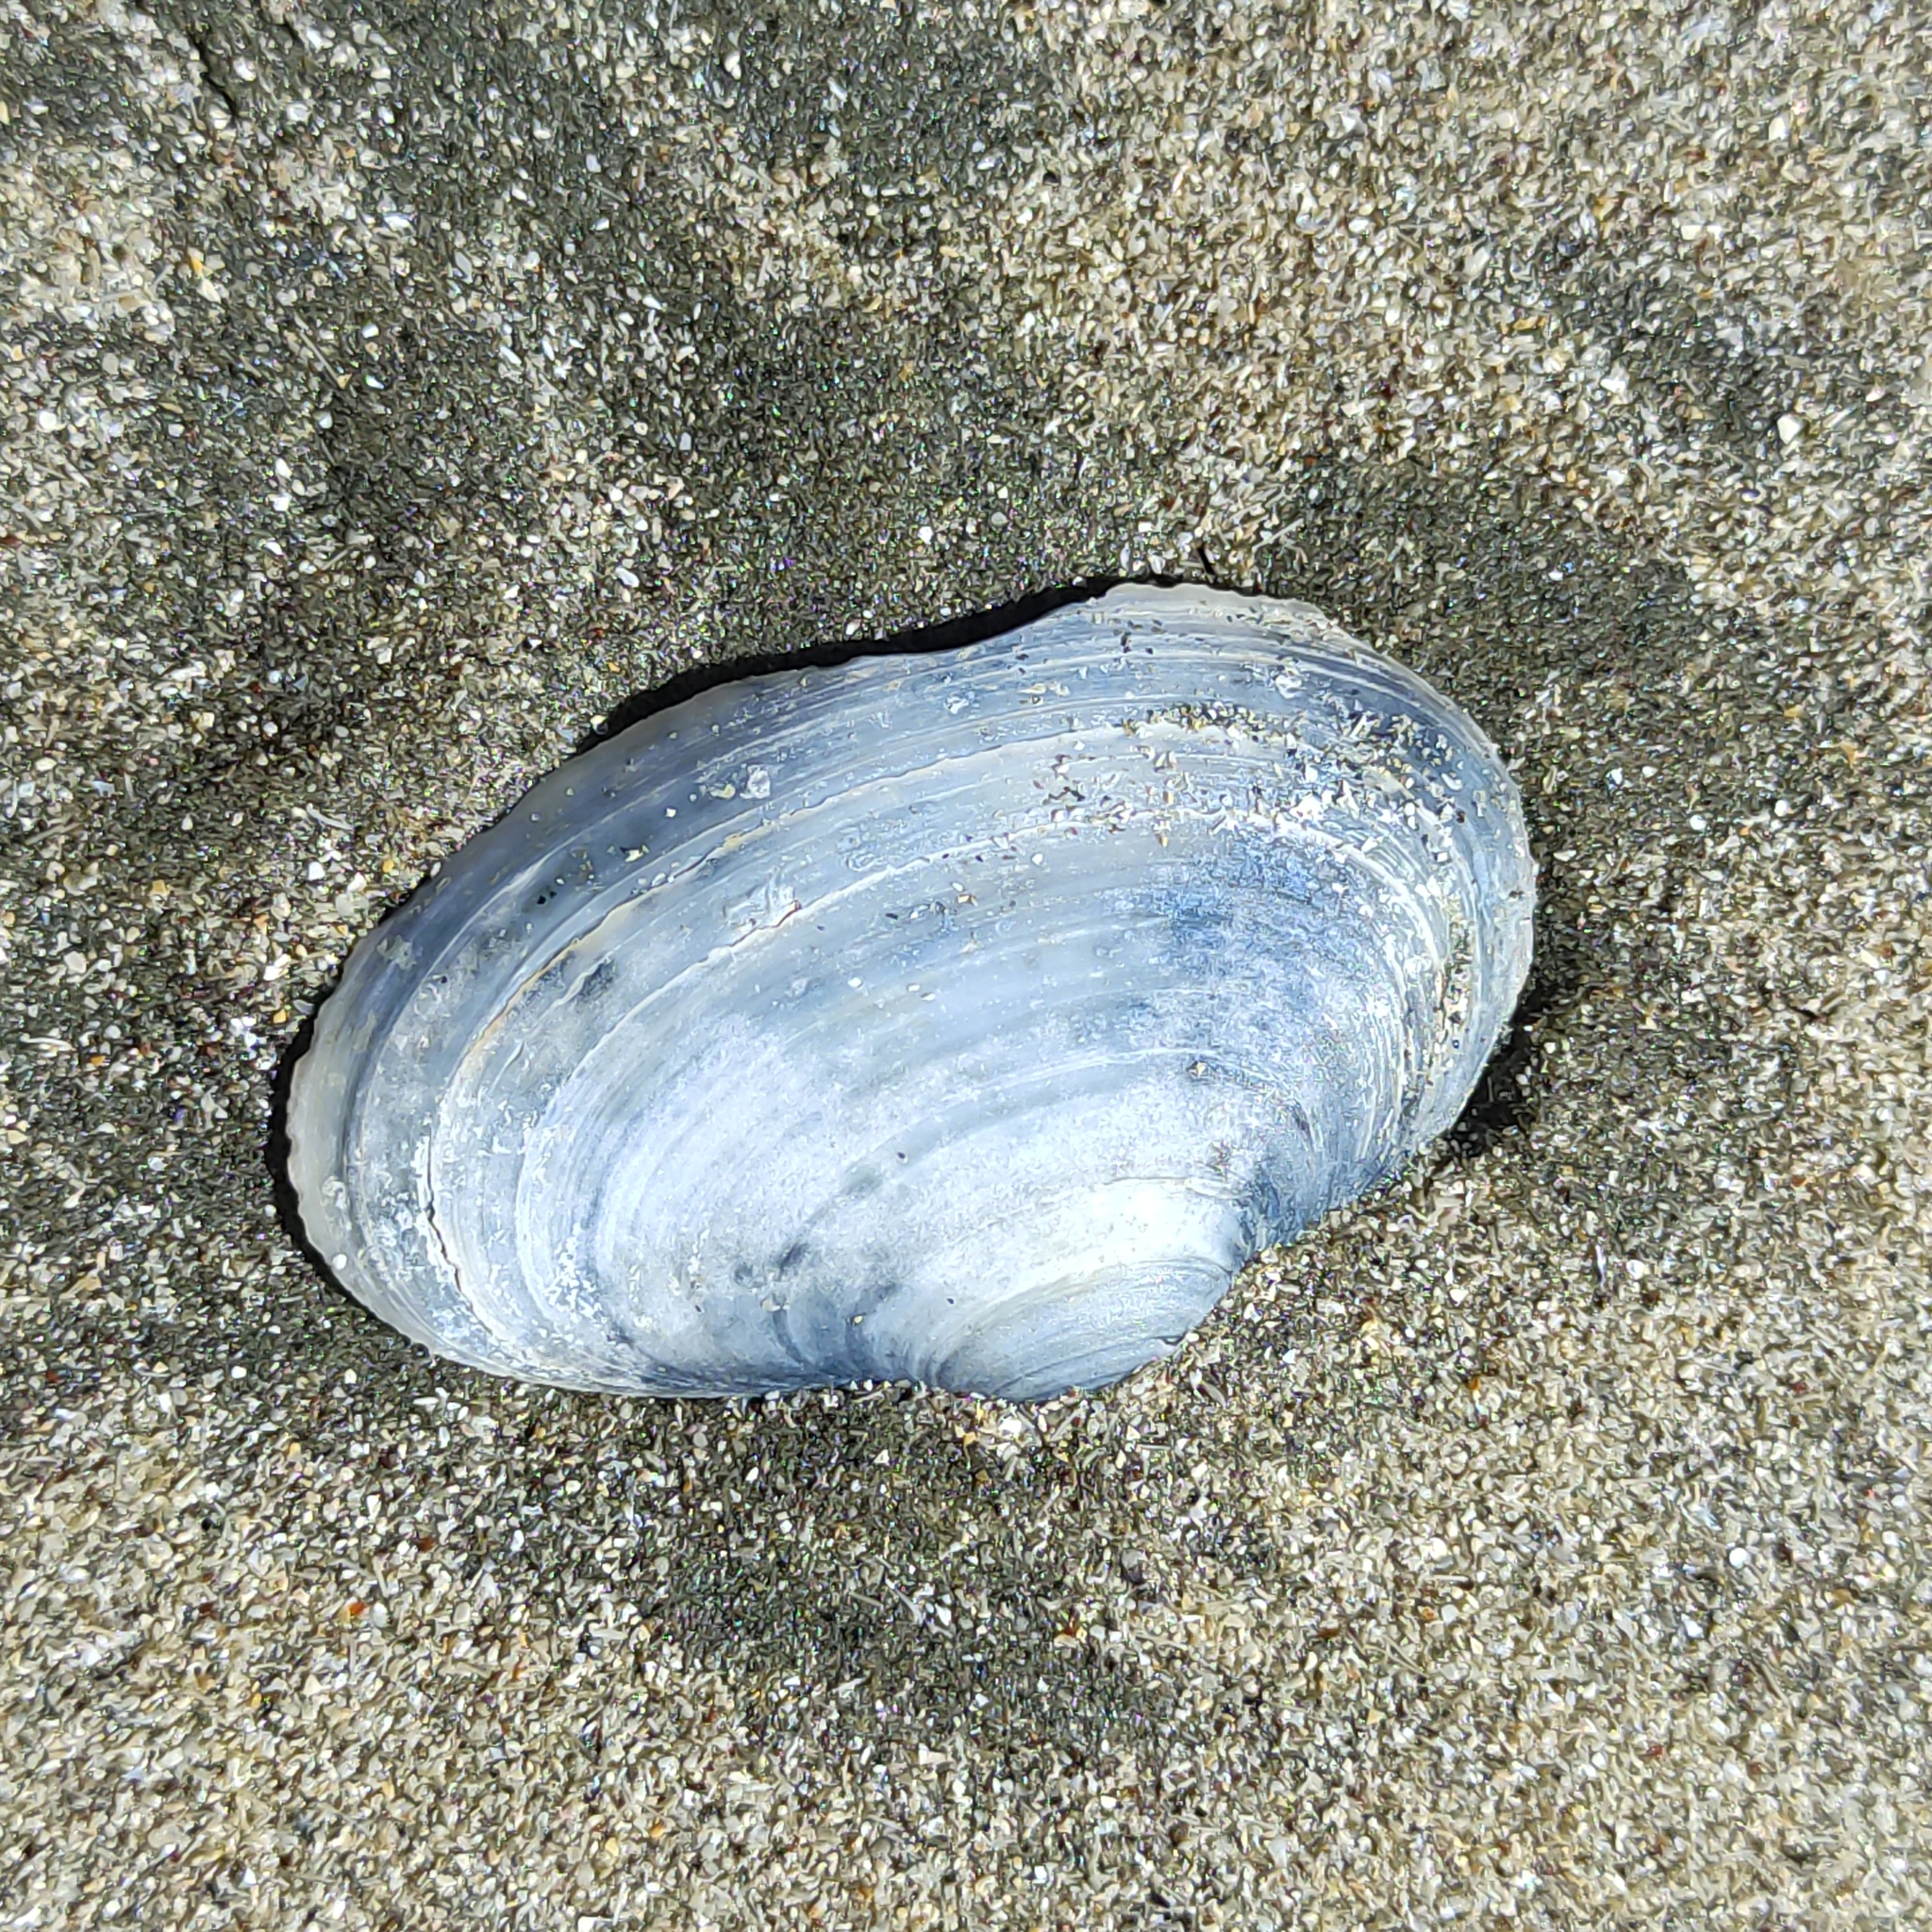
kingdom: Animalia
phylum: Mollusca
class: Bivalvia
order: Venerida
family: Mesodesmatidae
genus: Paphies
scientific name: Paphies australis
